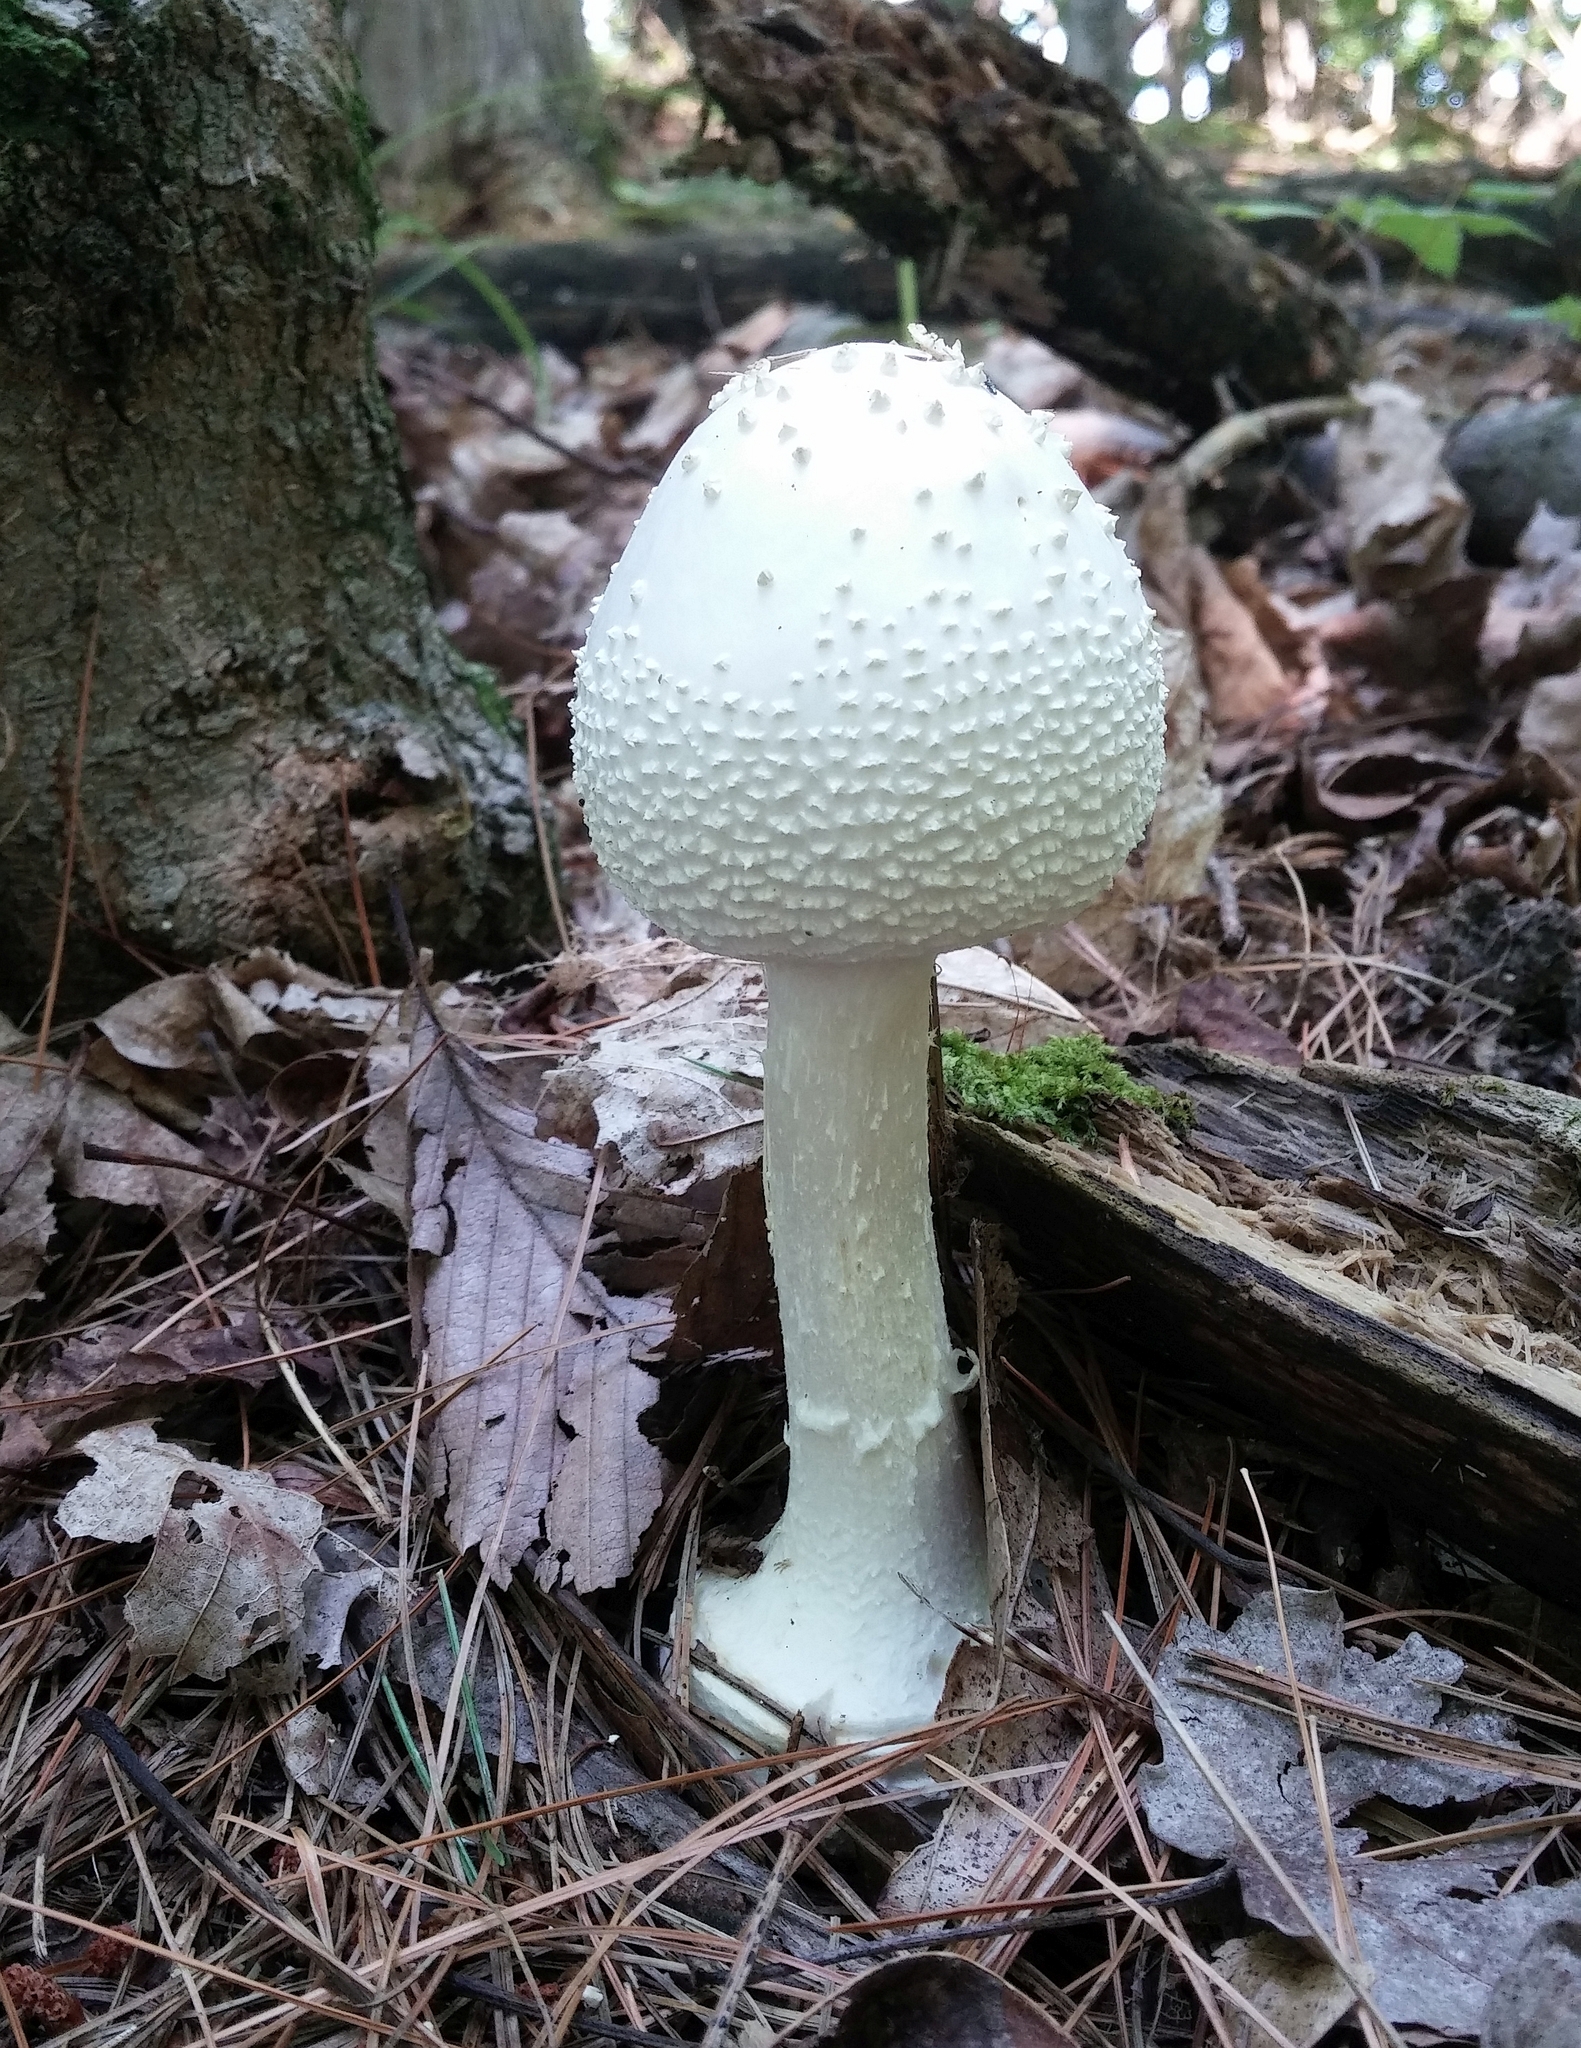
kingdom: Fungi
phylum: Basidiomycota
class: Agaricomycetes
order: Agaricales
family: Amanitaceae
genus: Amanita
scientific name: Amanita abrupta
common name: American abrupt-bulbed lepidella
